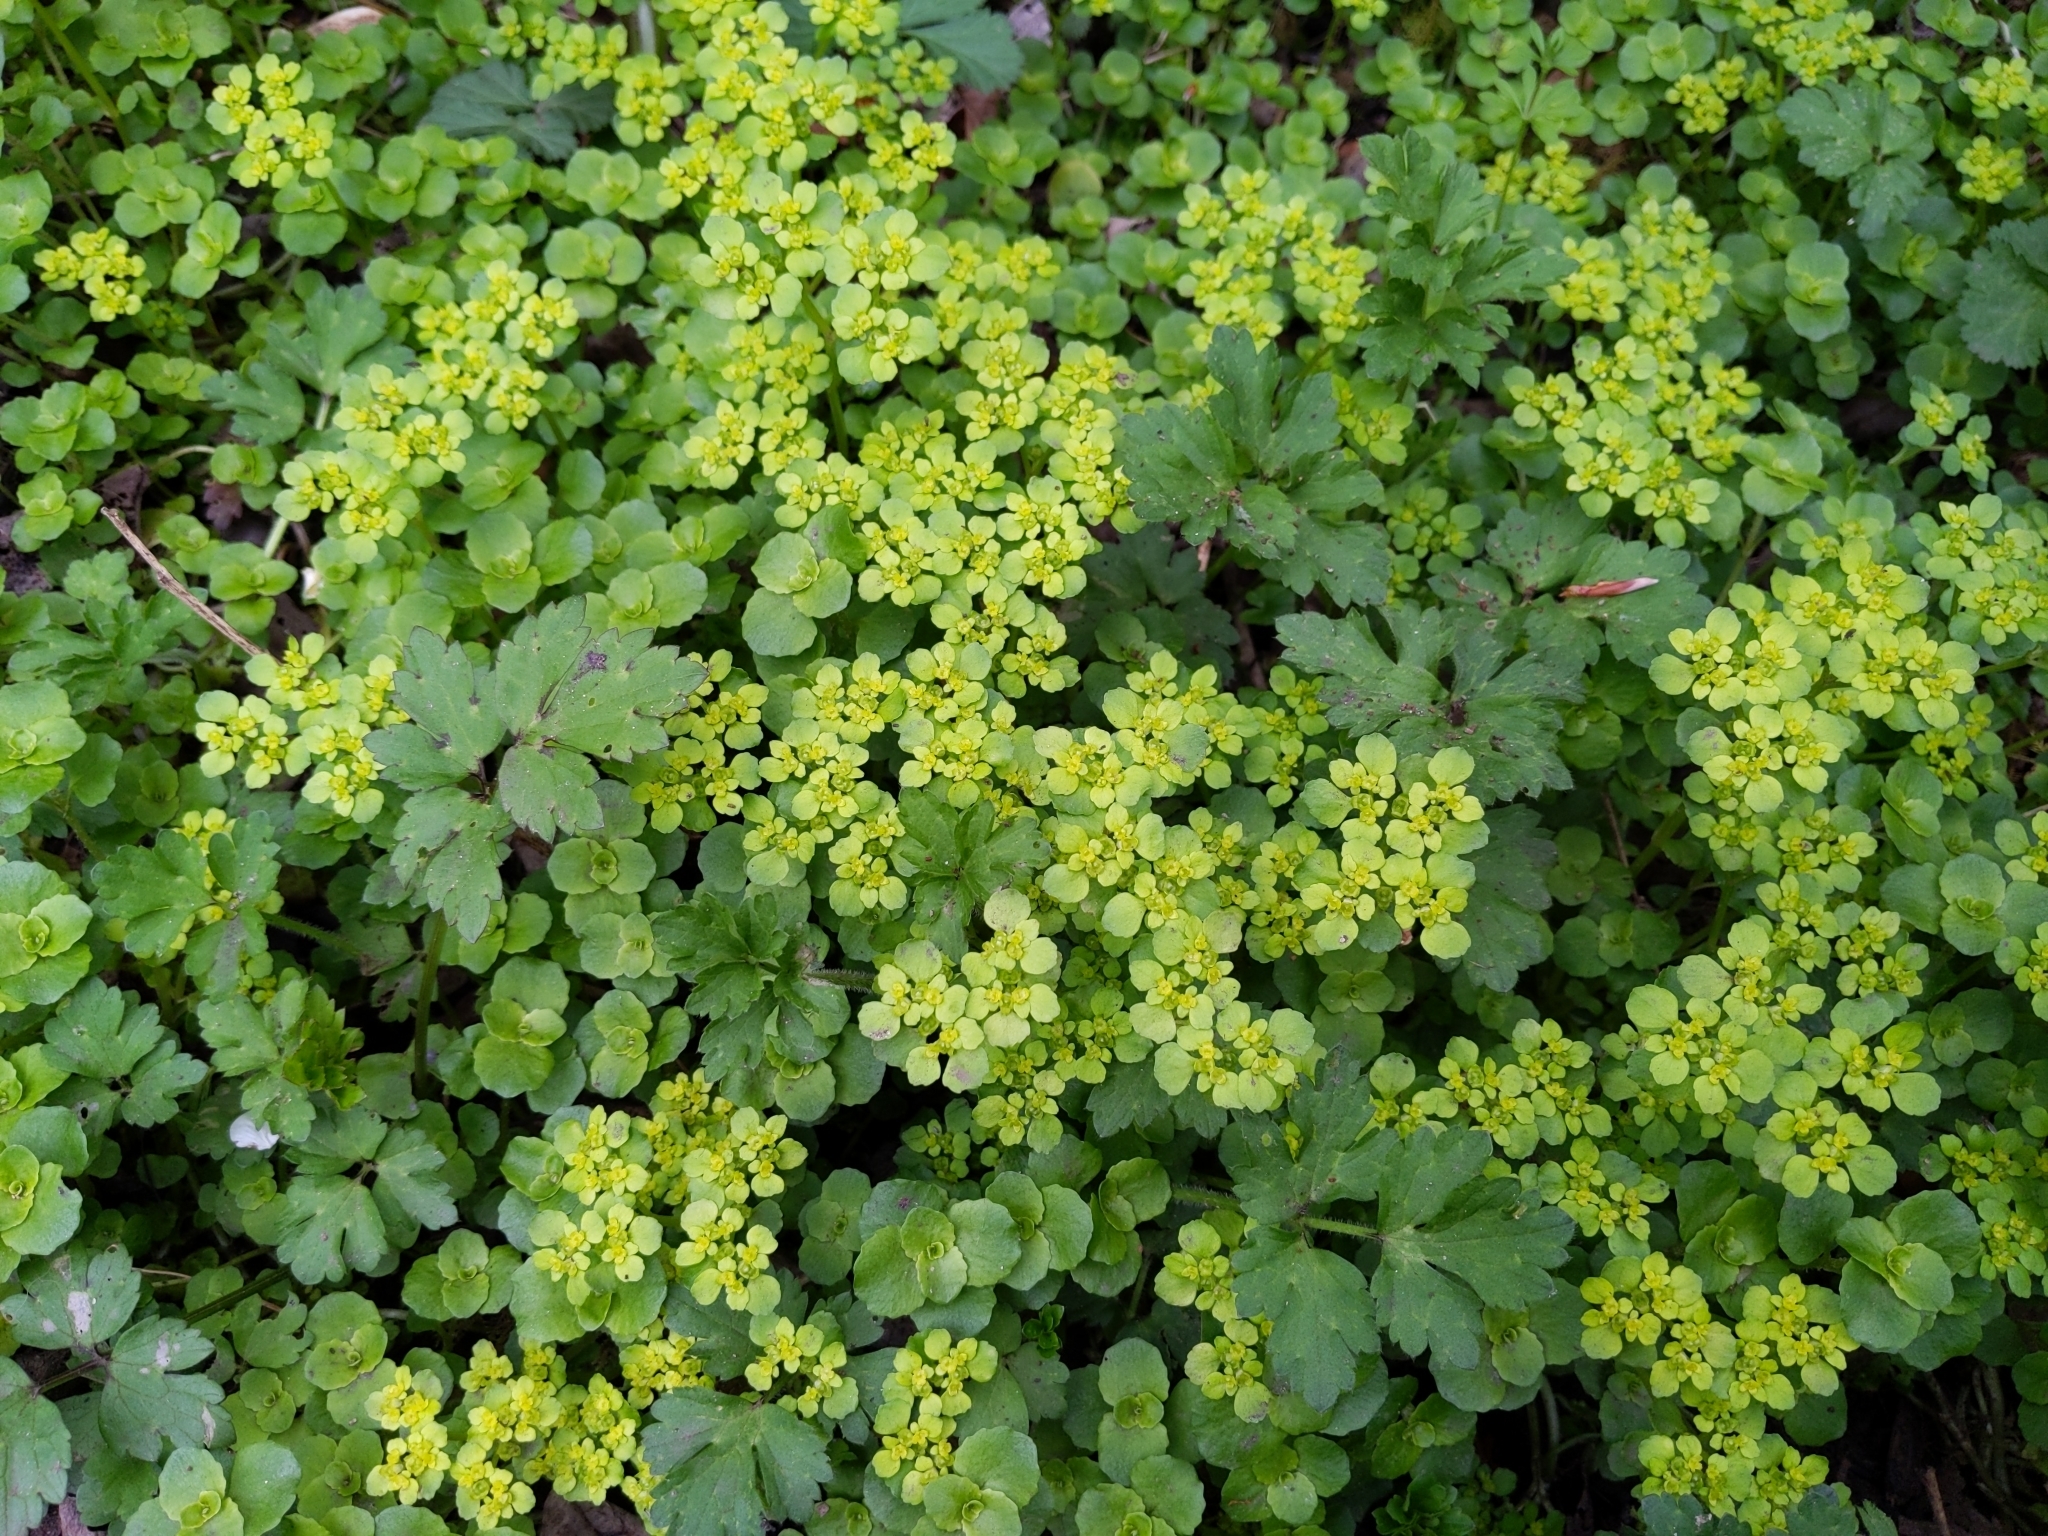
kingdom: Plantae
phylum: Tracheophyta
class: Magnoliopsida
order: Saxifragales
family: Saxifragaceae
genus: Chrysosplenium
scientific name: Chrysosplenium oppositifolium
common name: Opposite-leaved golden-saxifrage
